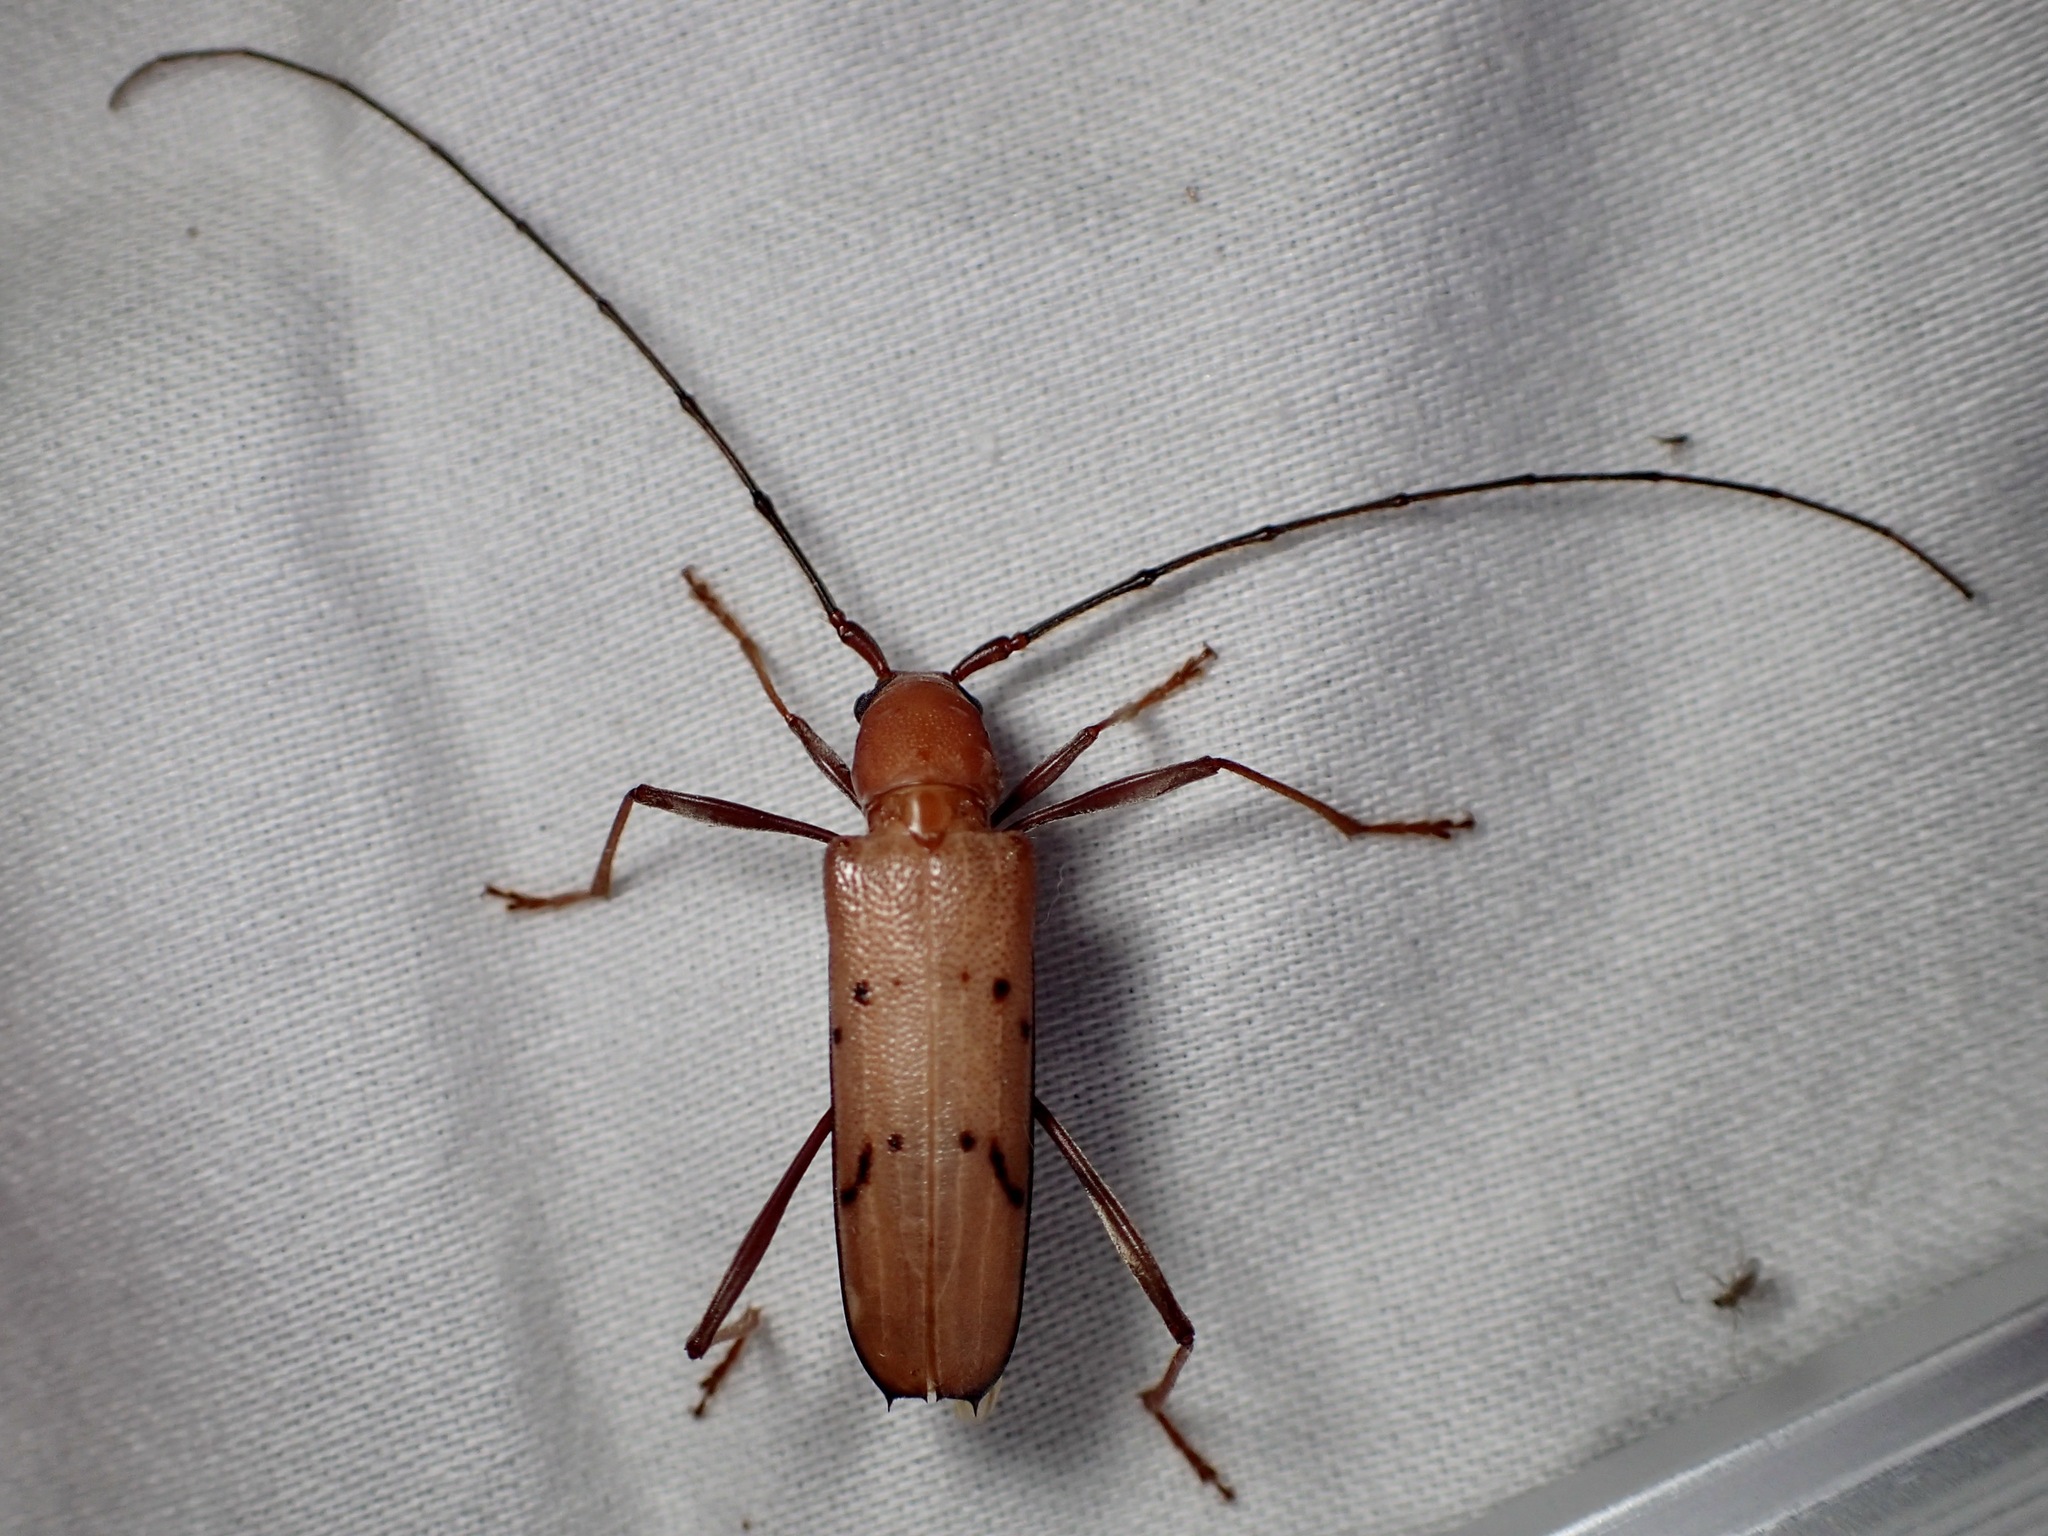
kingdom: Animalia
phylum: Arthropoda
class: Insecta
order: Coleoptera
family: Cerambycidae
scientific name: Cerambycidae
